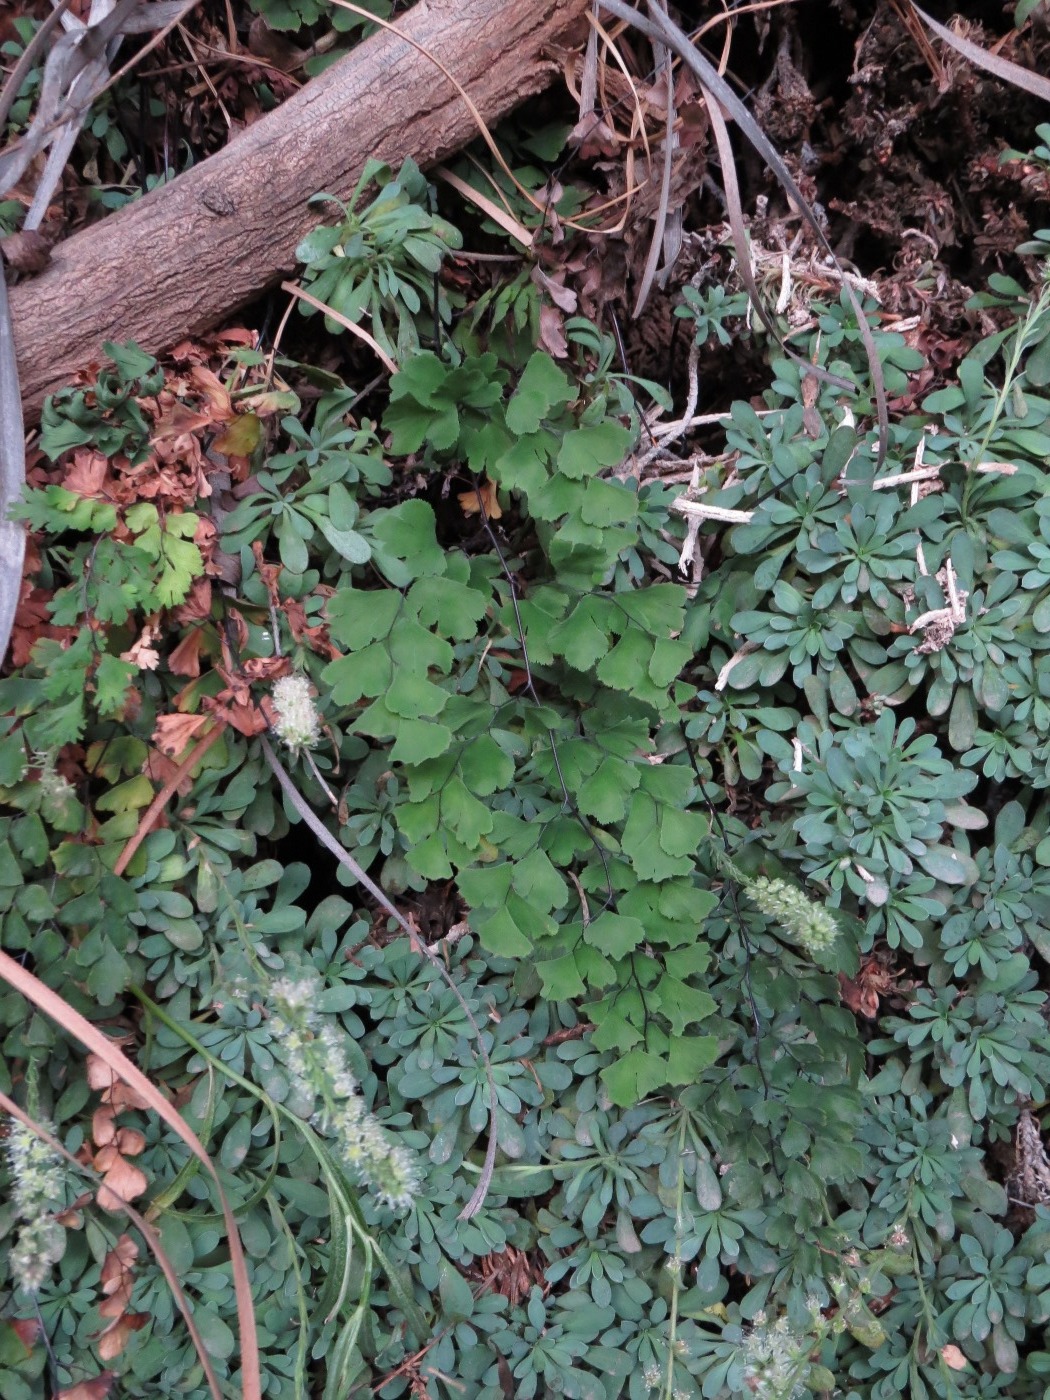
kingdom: Plantae
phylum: Tracheophyta
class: Polypodiopsida
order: Polypodiales
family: Pteridaceae
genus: Adiantum
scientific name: Adiantum capillus-veneris
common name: Maidenhair fern
